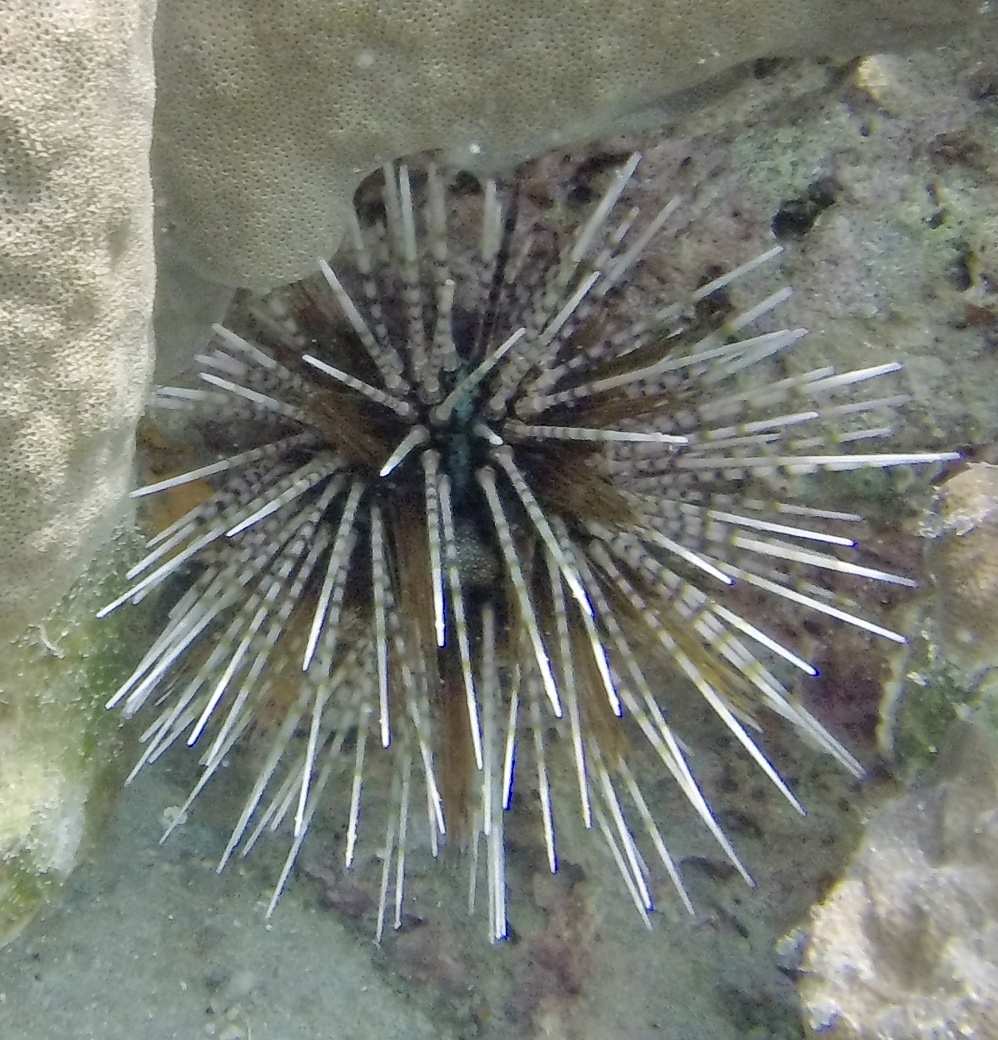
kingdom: Animalia
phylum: Echinodermata
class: Echinoidea
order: Diadematoida
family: Diadematidae
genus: Echinothrix
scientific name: Echinothrix calamaris
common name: Banded sea urchin
